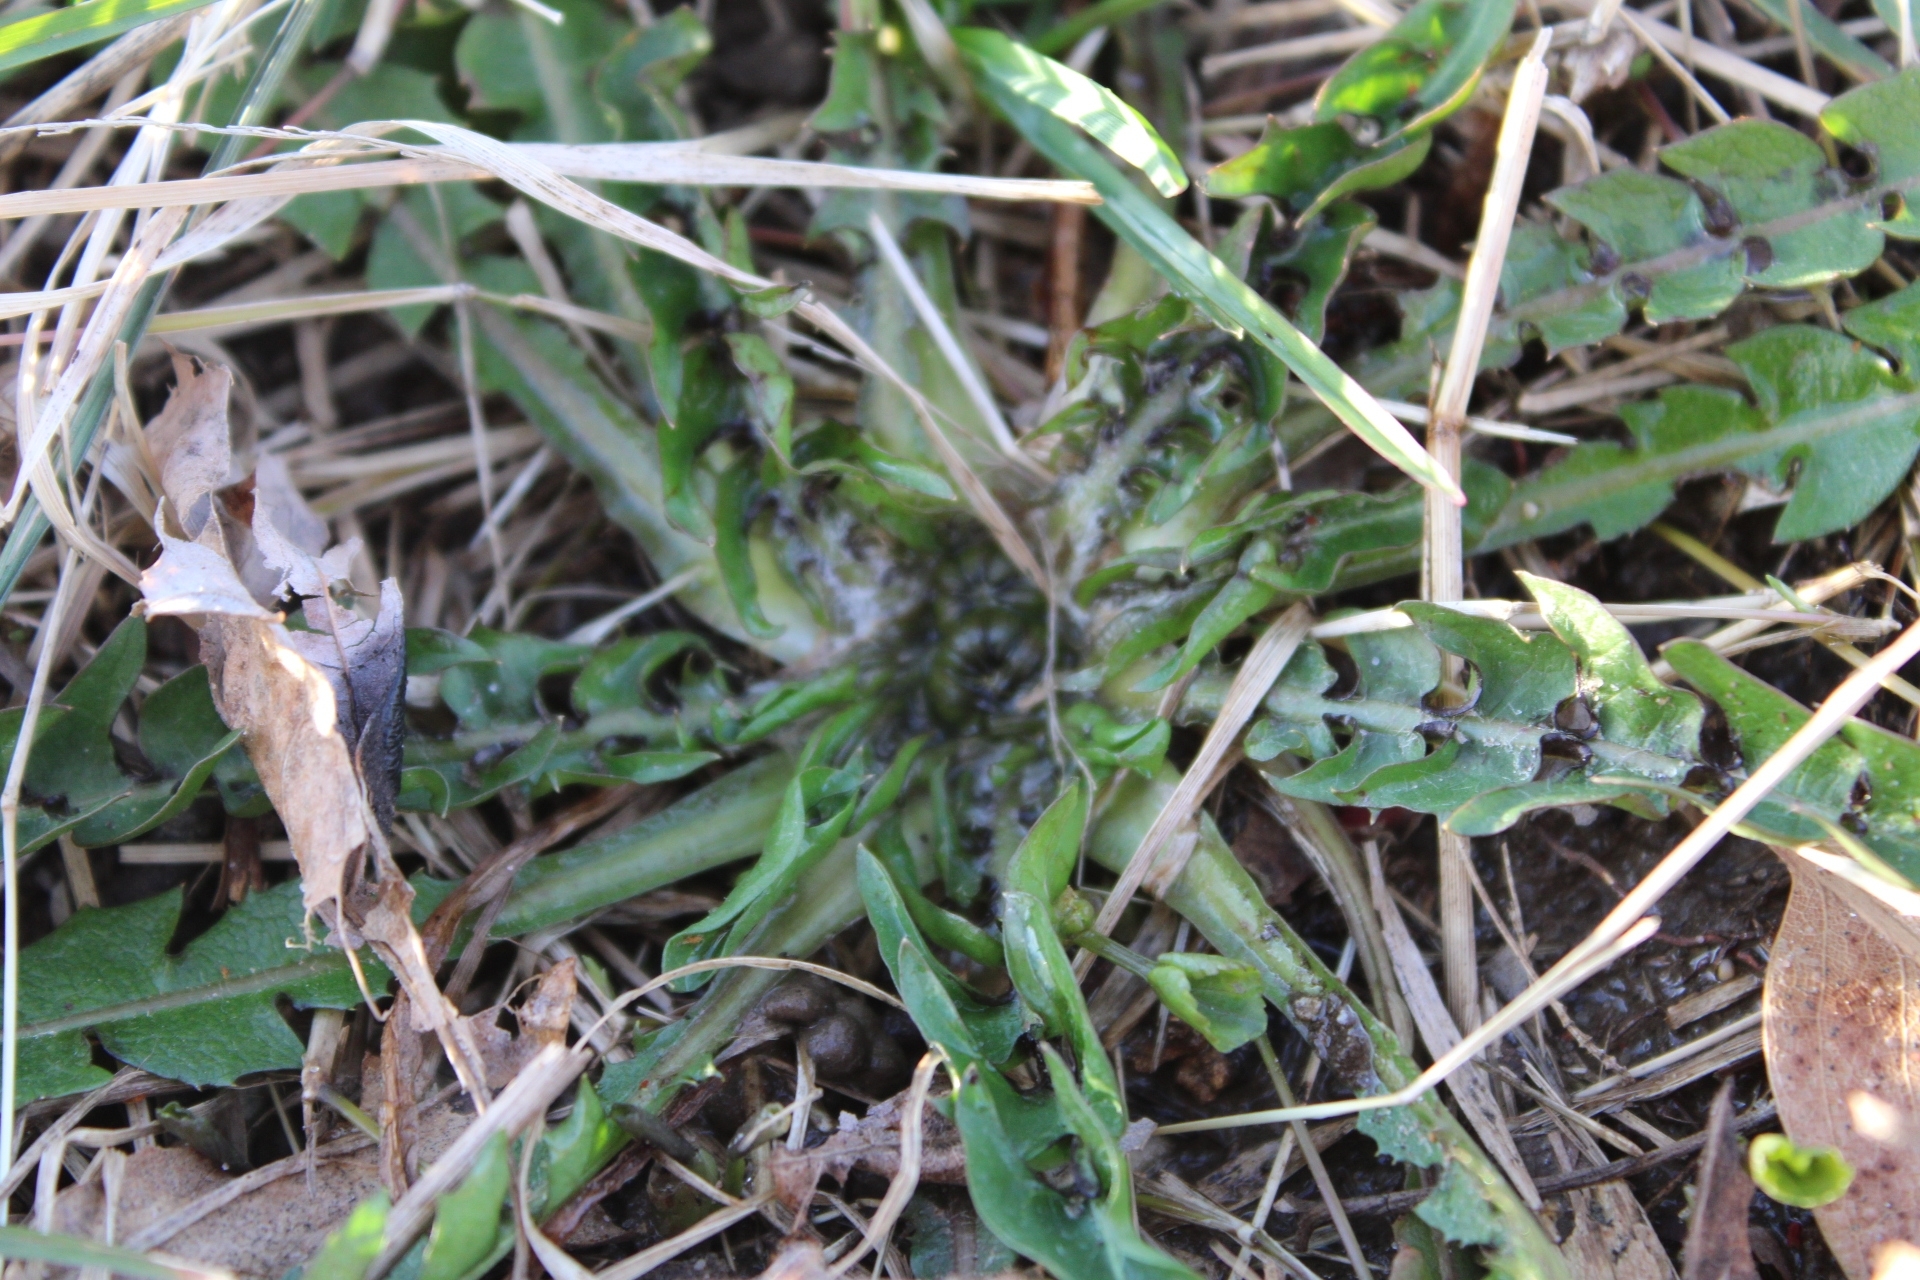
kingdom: Plantae
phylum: Tracheophyta
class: Magnoliopsida
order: Asterales
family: Asteraceae
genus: Taraxacum
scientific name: Taraxacum officinale
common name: Common dandelion
